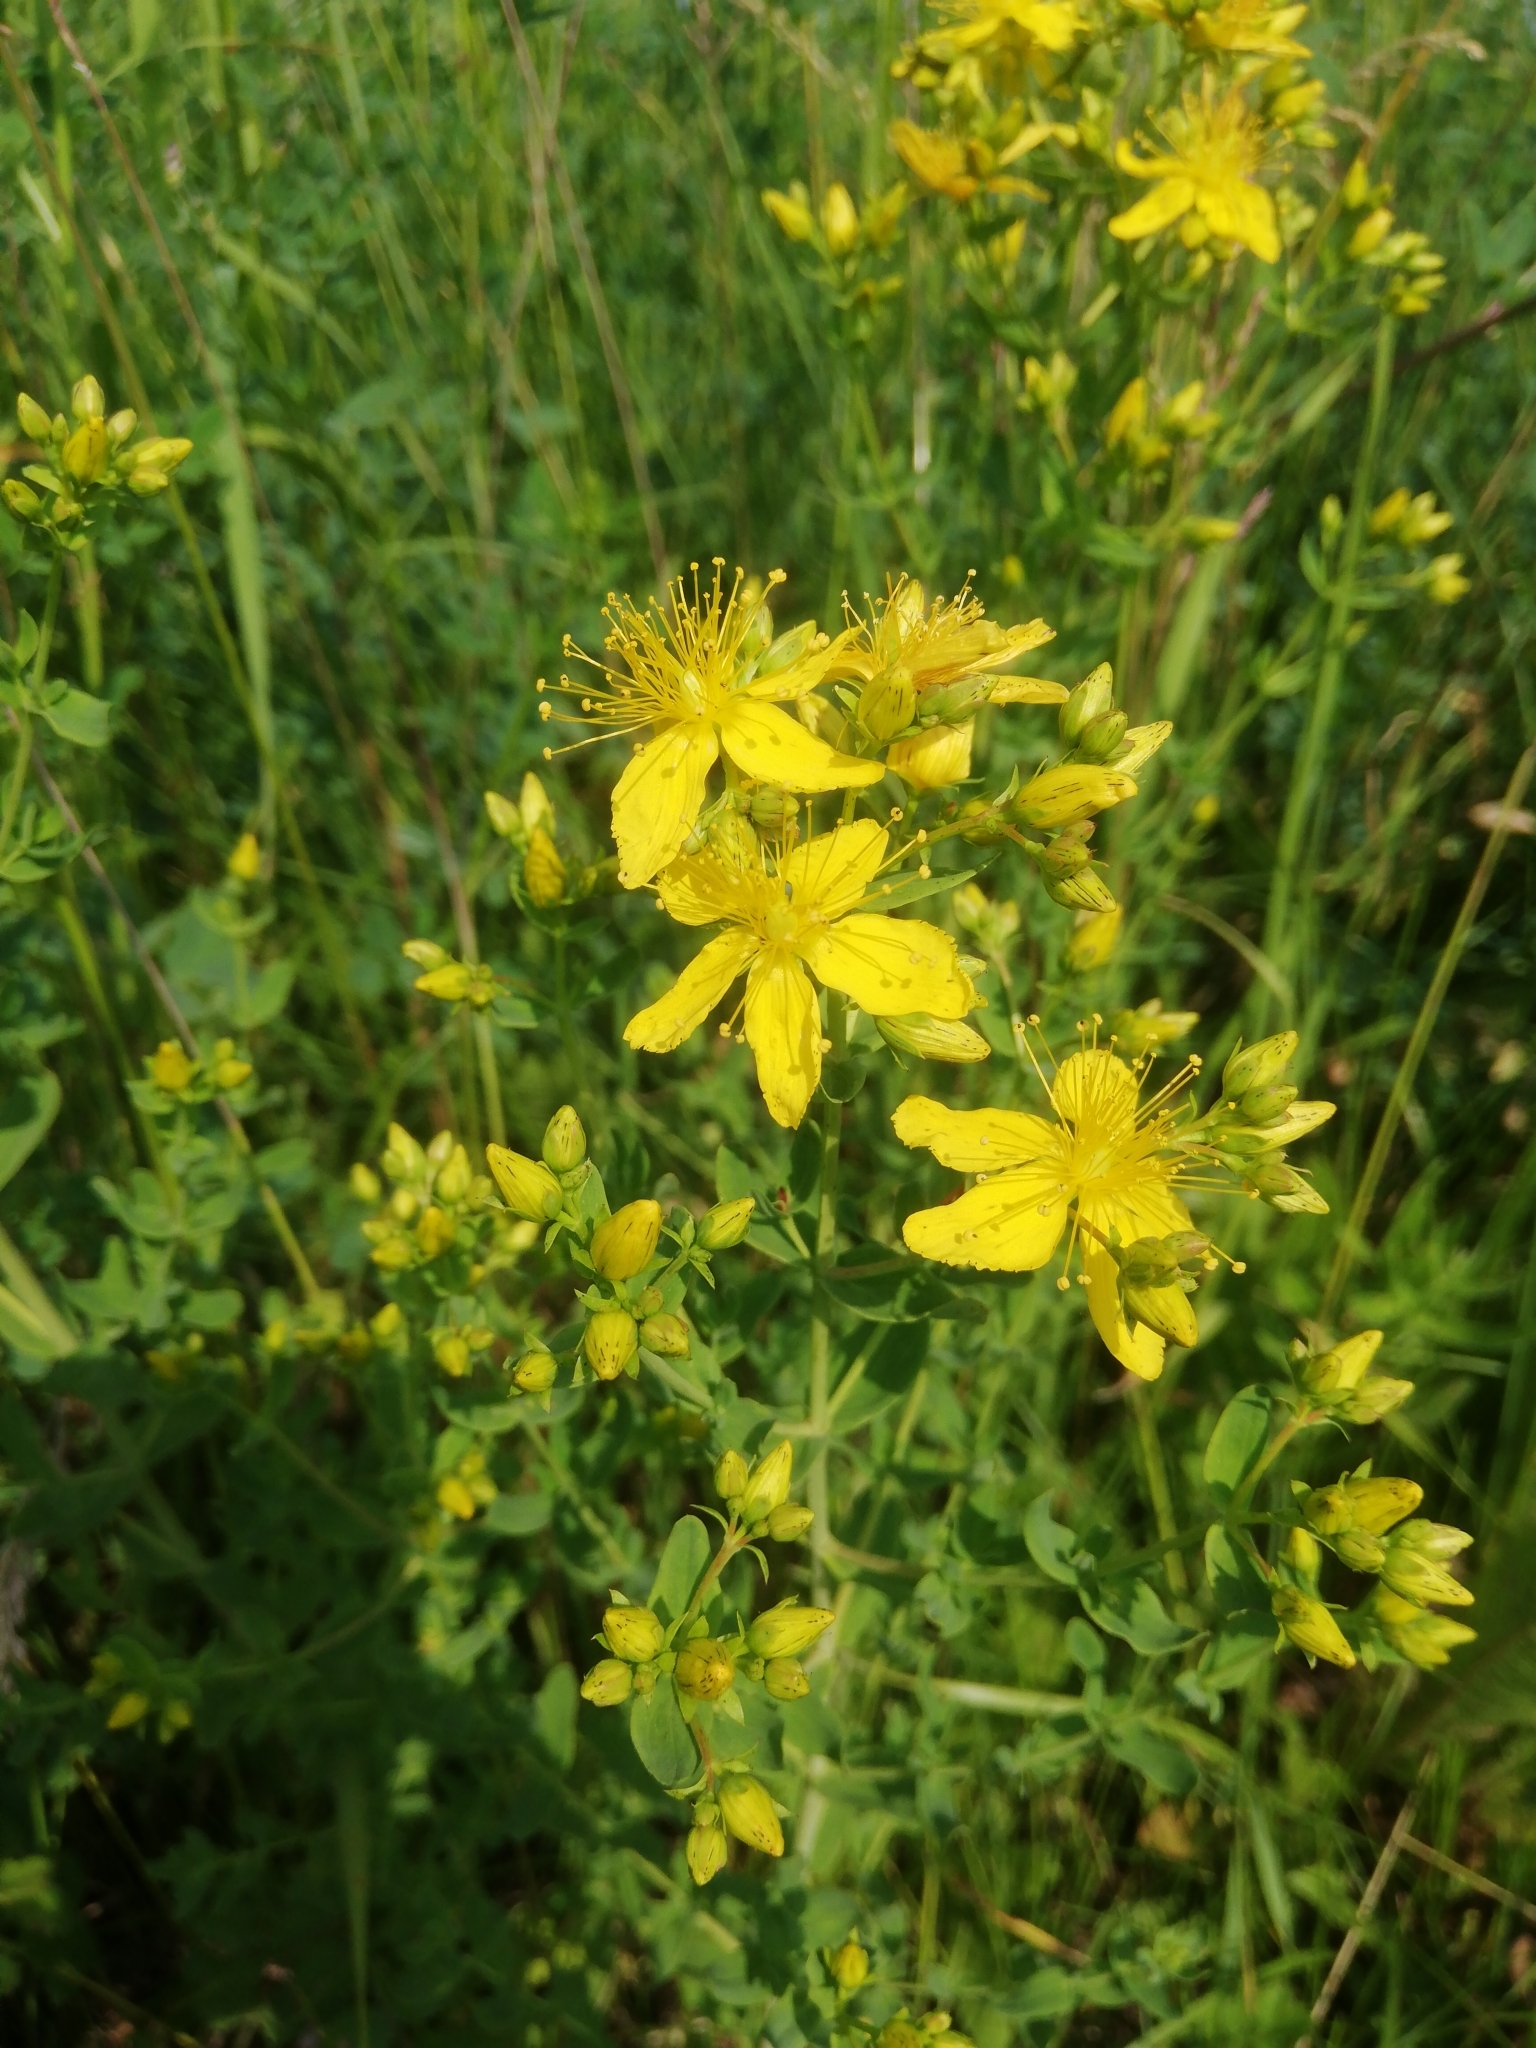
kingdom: Plantae
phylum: Tracheophyta
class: Magnoliopsida
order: Malpighiales
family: Hypericaceae
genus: Hypericum
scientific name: Hypericum perforatum
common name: Common st. johnswort
